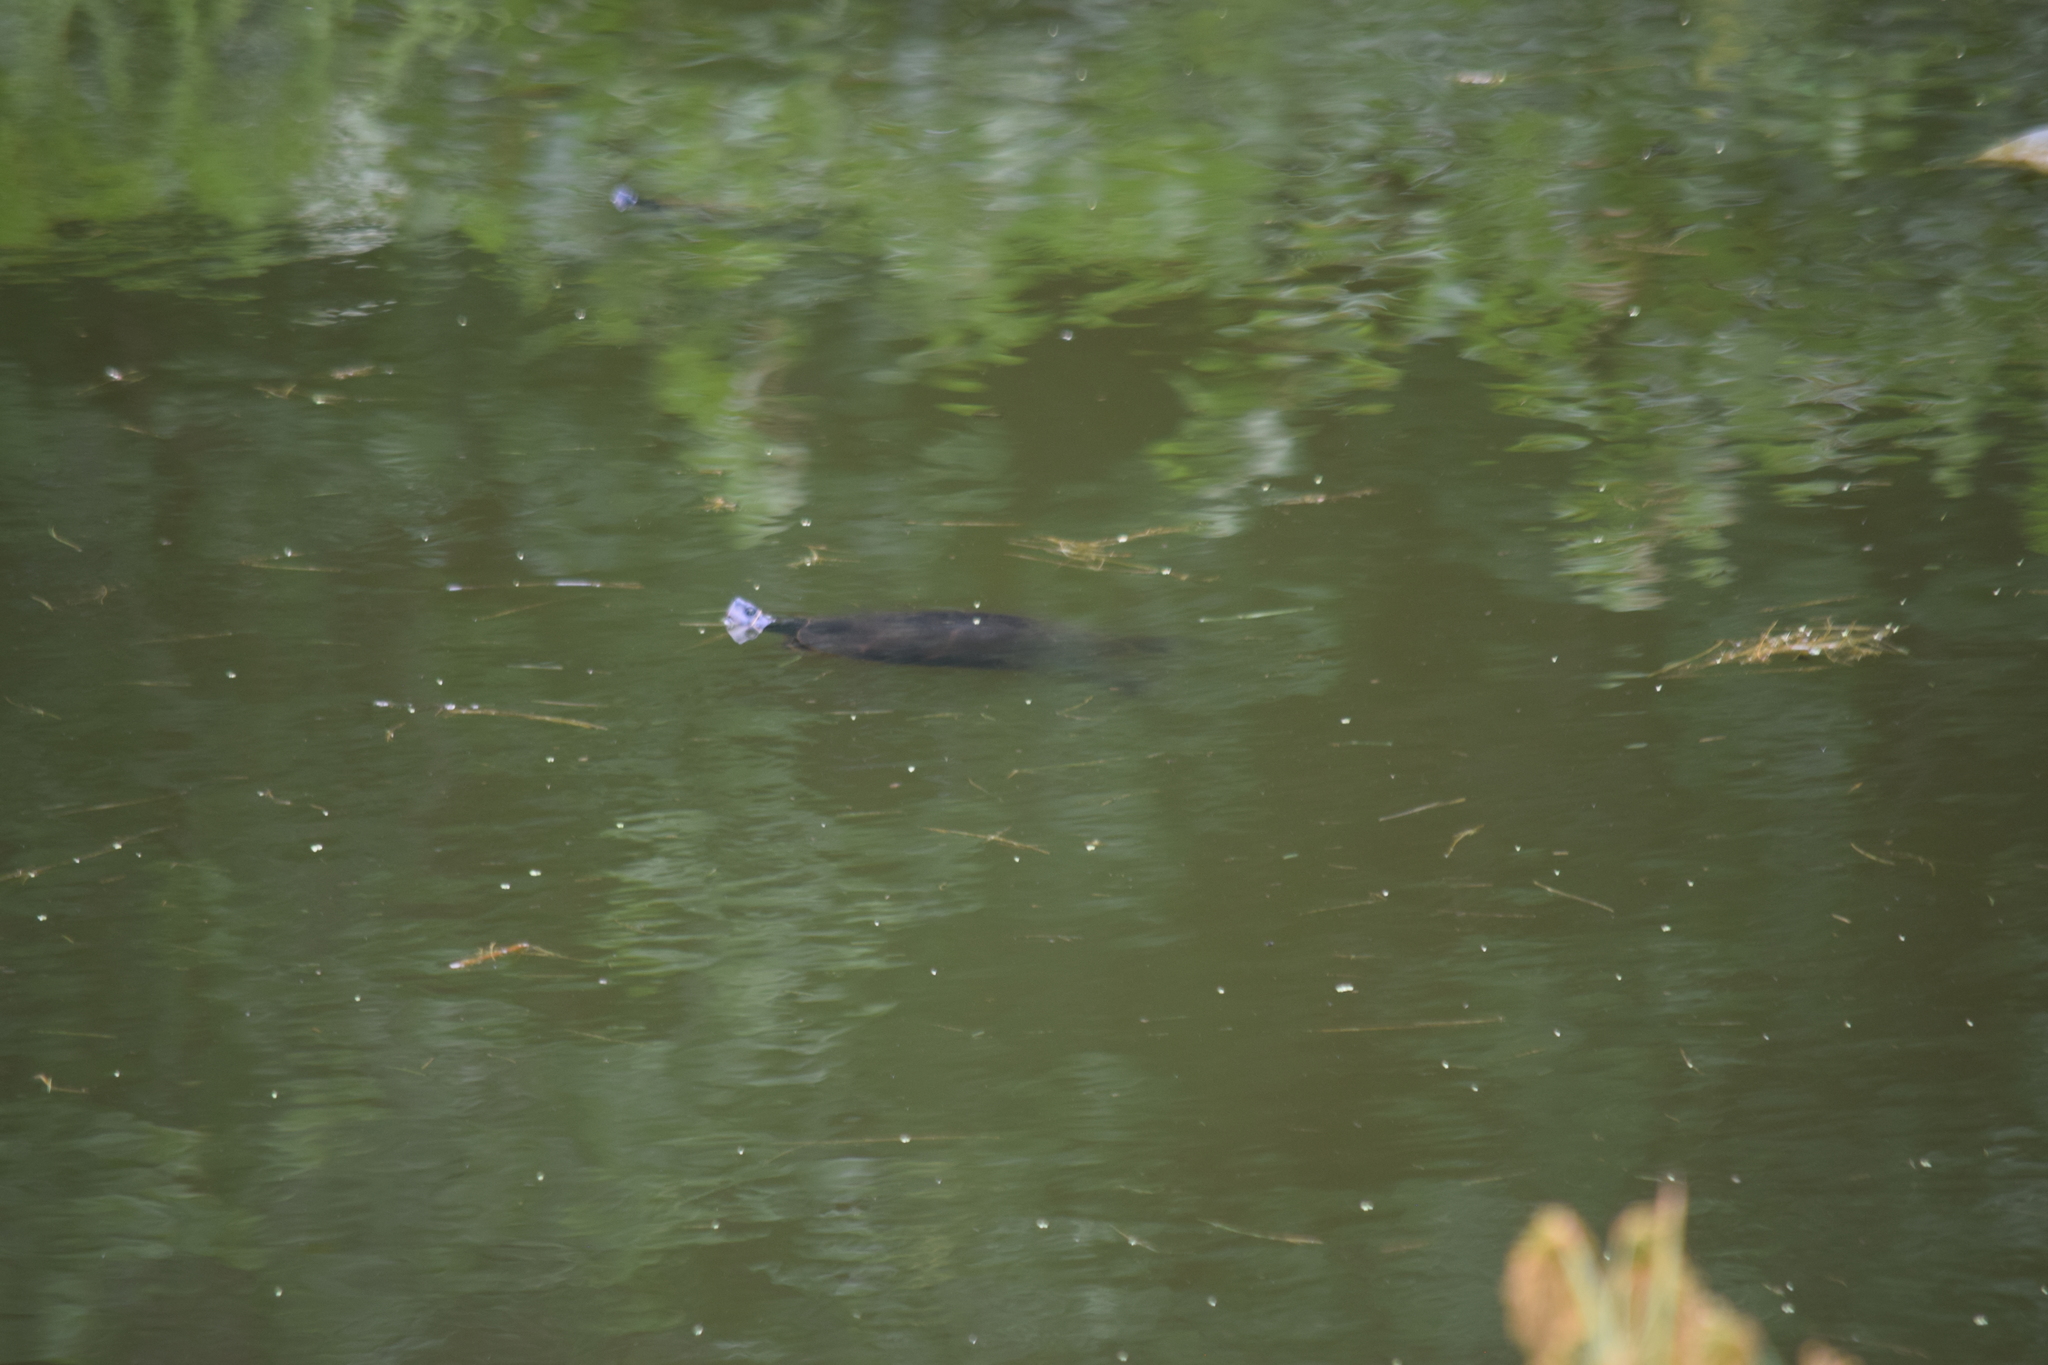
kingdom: Animalia
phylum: Chordata
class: Testudines
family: Emydidae
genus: Pseudemys
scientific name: Pseudemys rubriventris
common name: American red-bellied turtle
